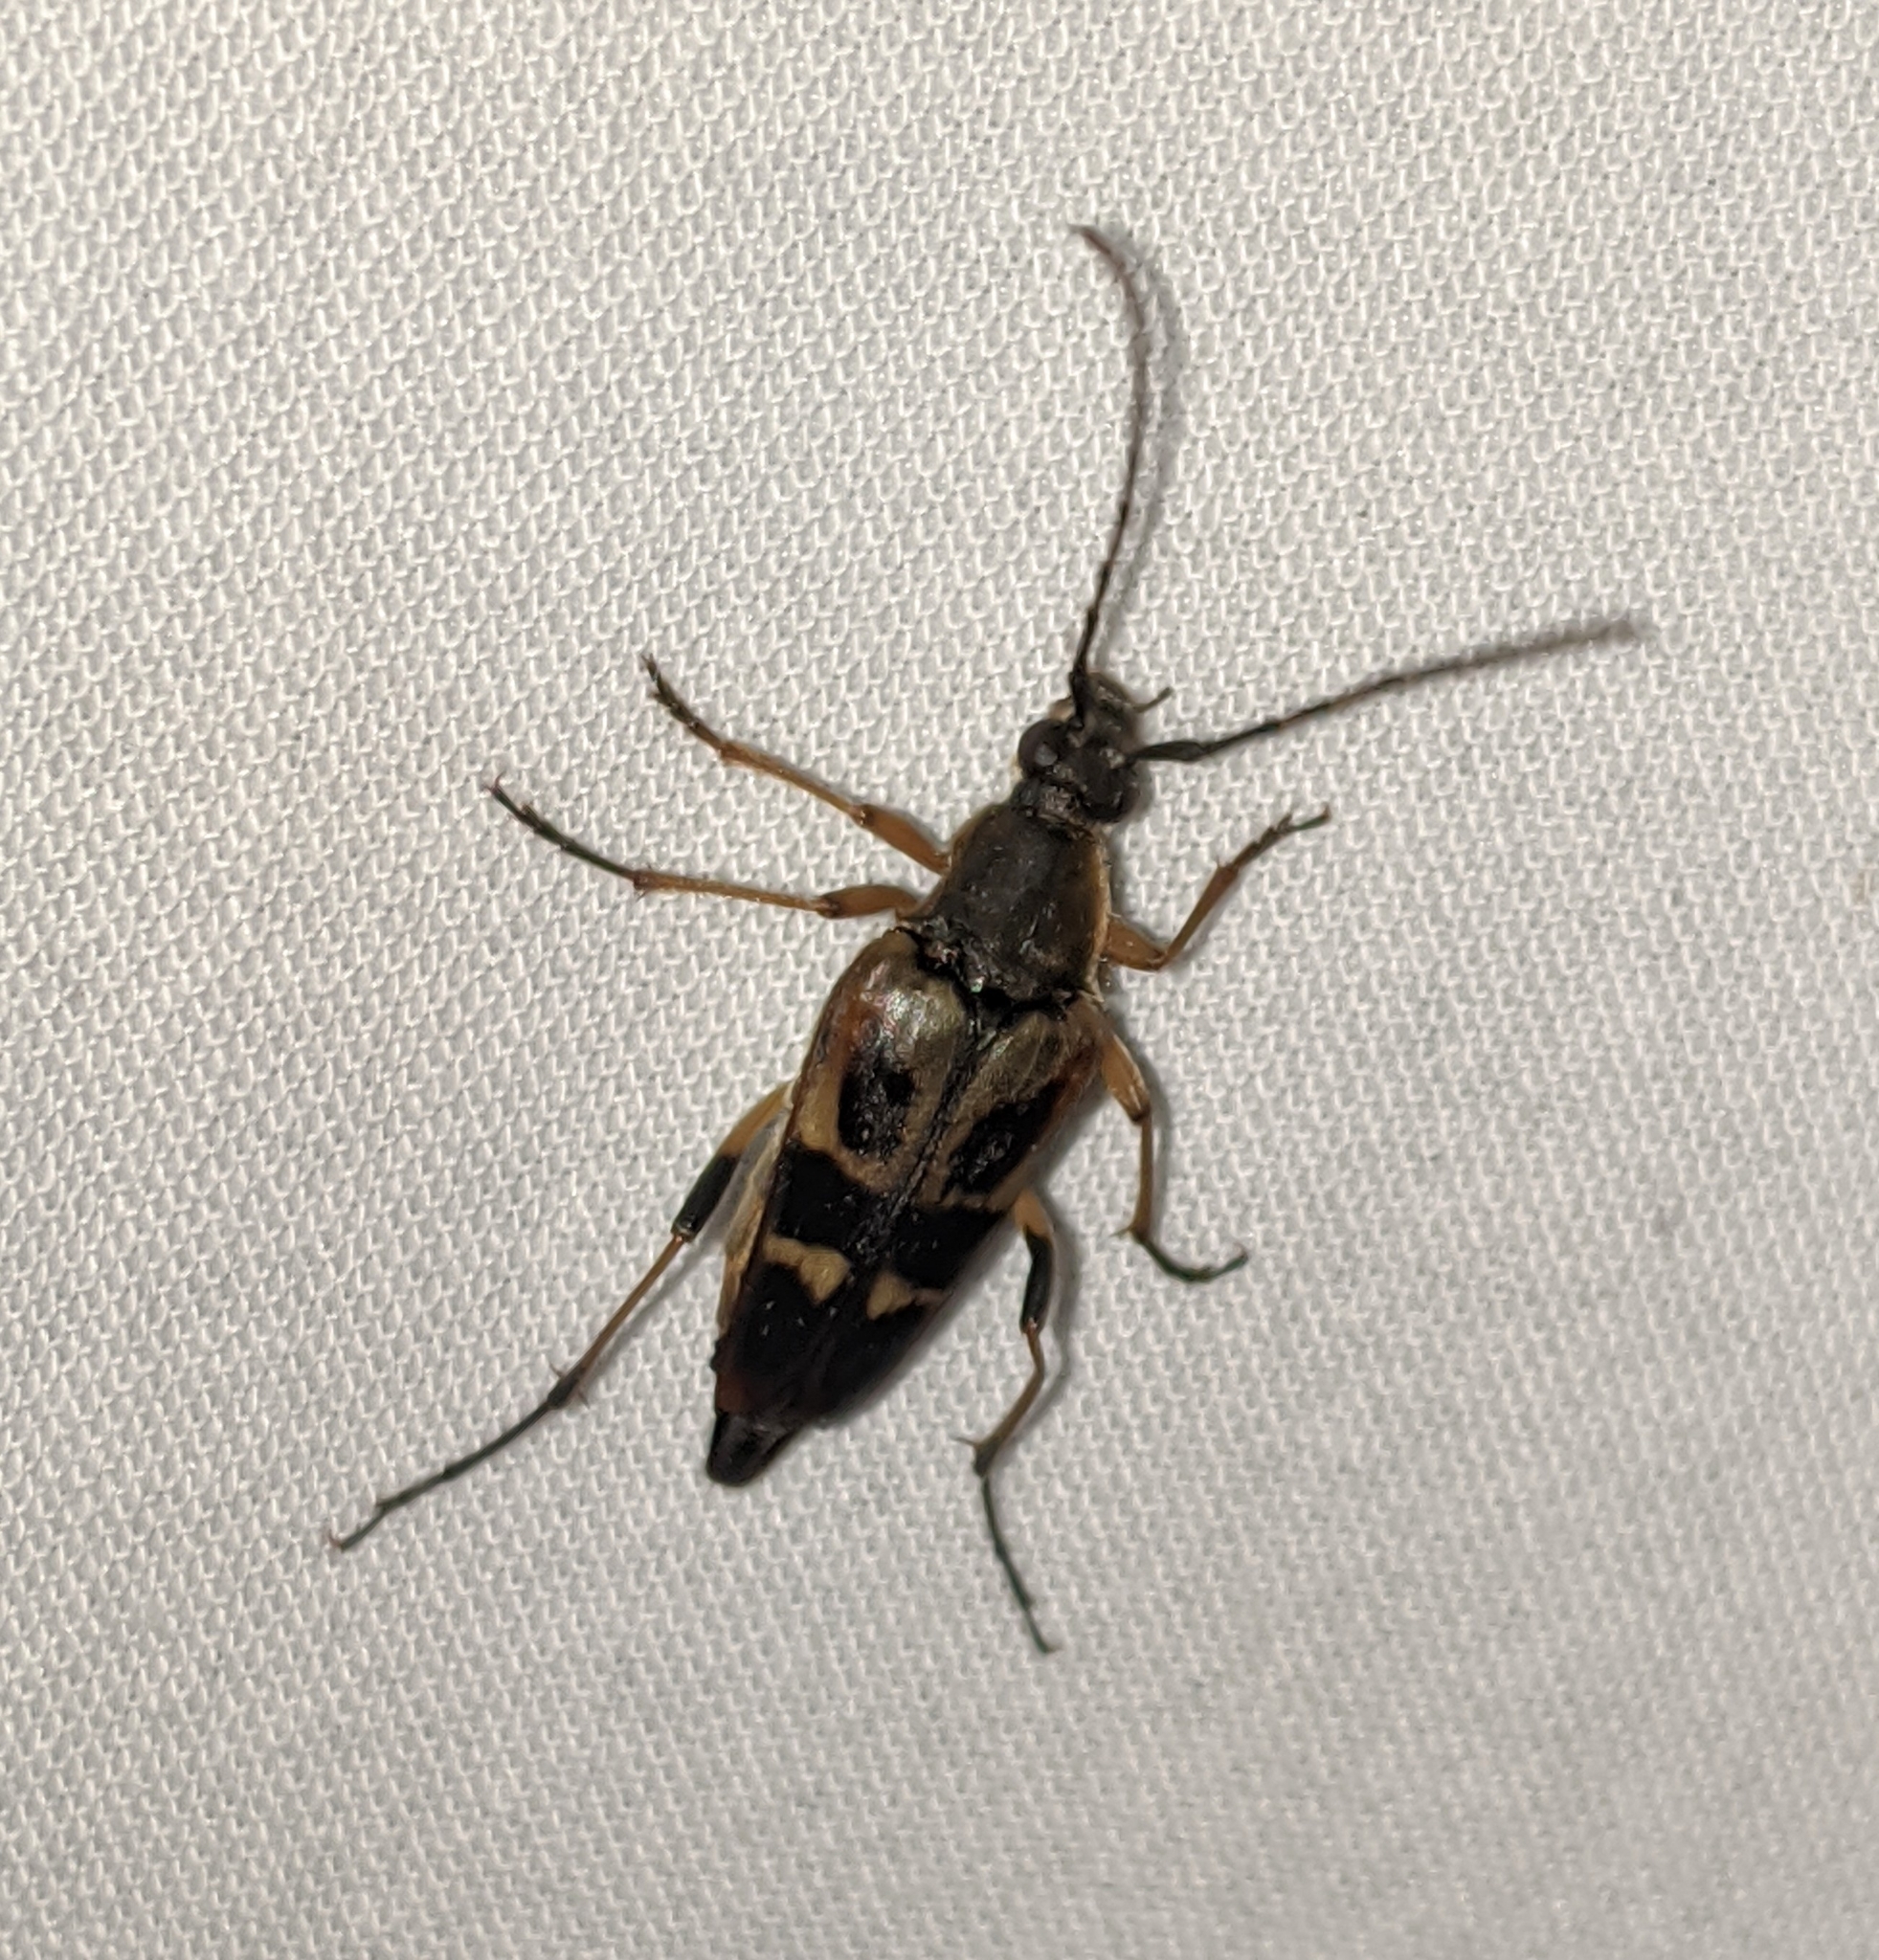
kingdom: Animalia
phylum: Arthropoda
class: Insecta
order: Coleoptera
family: Cerambycidae
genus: Etorofus
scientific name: Etorofus obliteratus
